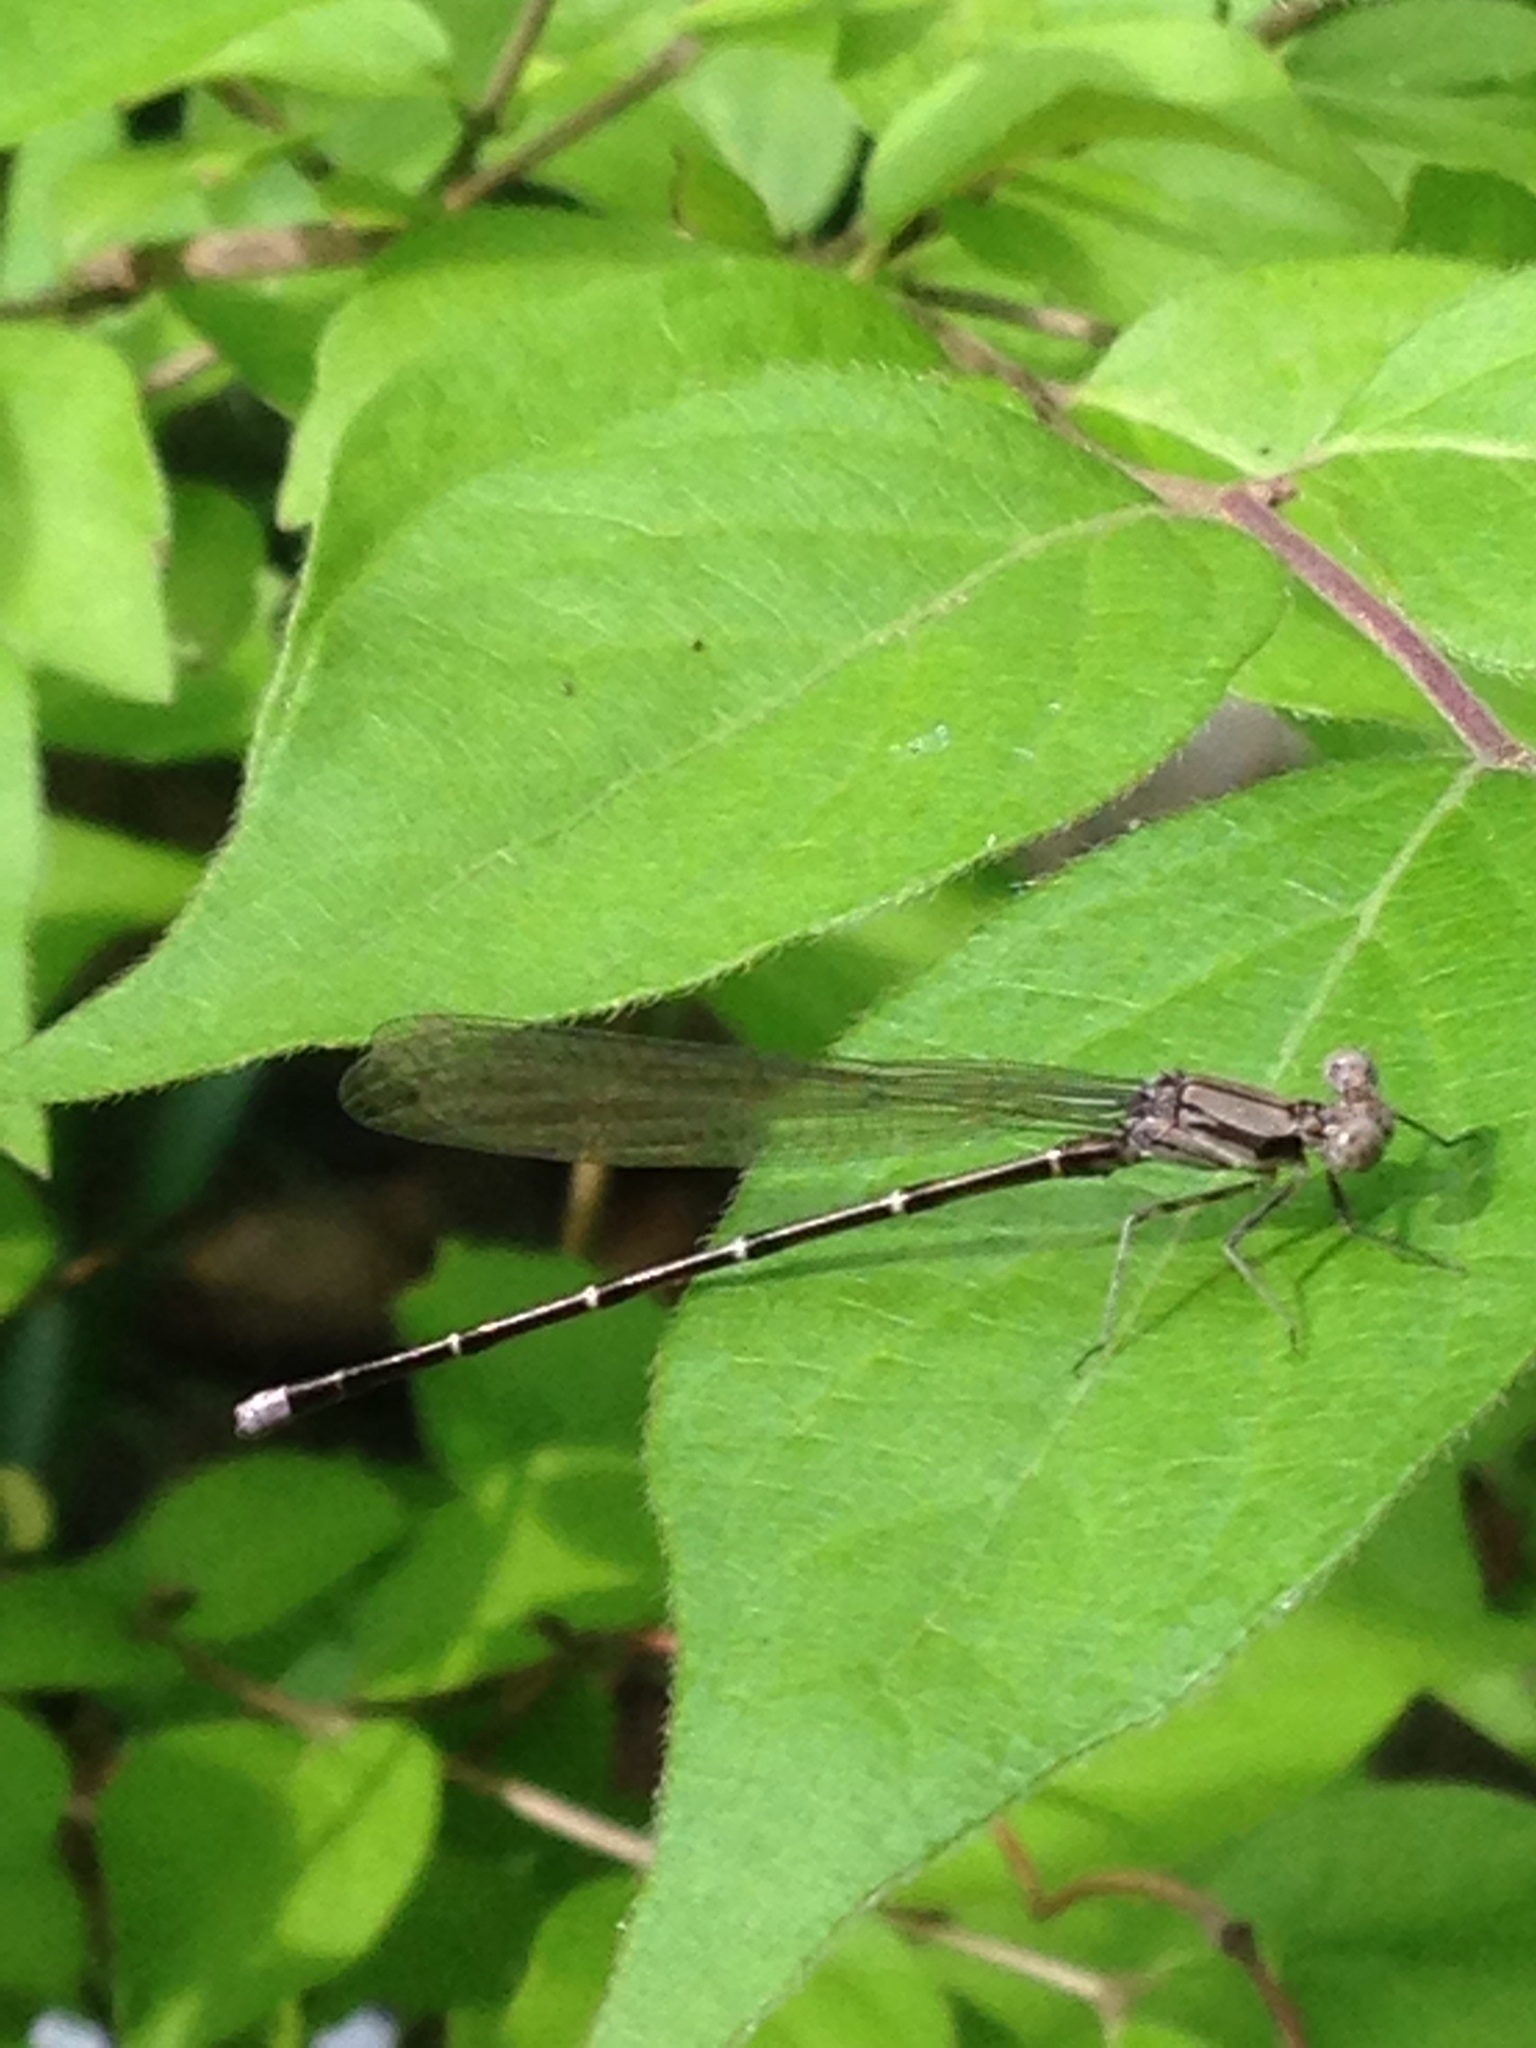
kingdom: Animalia
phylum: Arthropoda
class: Insecta
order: Odonata
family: Coenagrionidae
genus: Argia
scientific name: Argia tibialis
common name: Blue-tipped dancer
